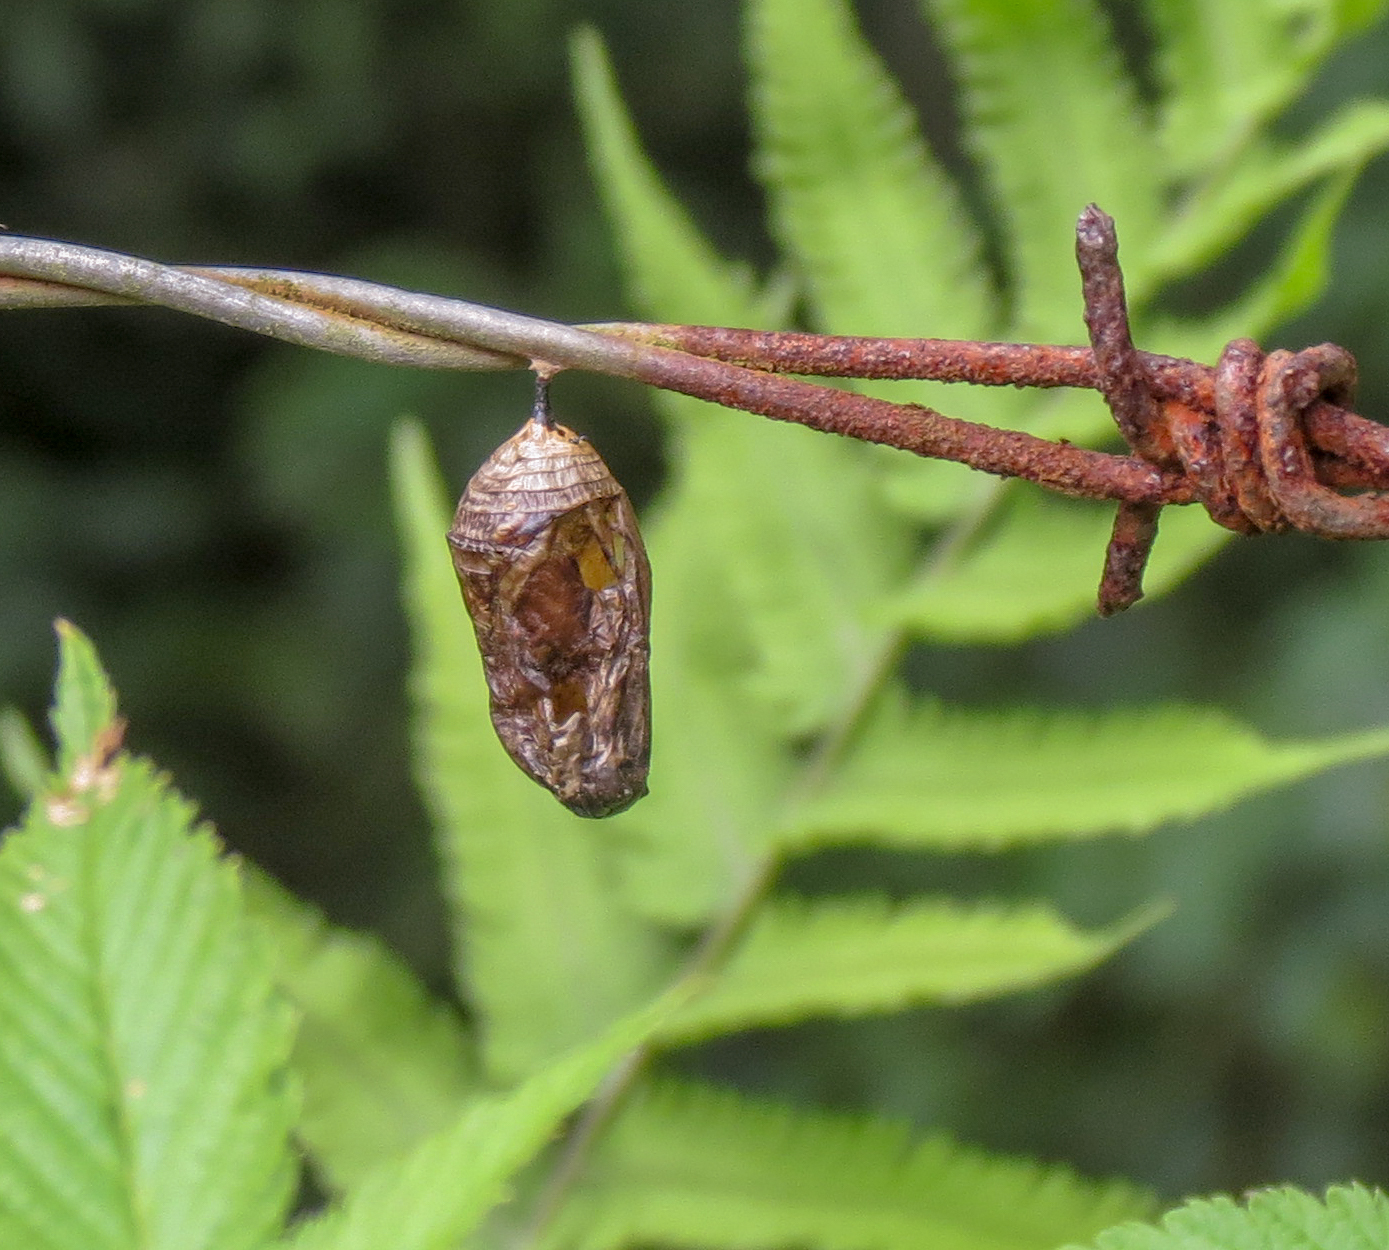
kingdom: Animalia
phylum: Arthropoda
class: Insecta
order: Lepidoptera
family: Nymphalidae
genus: Danaus
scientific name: Danaus plexippus
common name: Monarch
